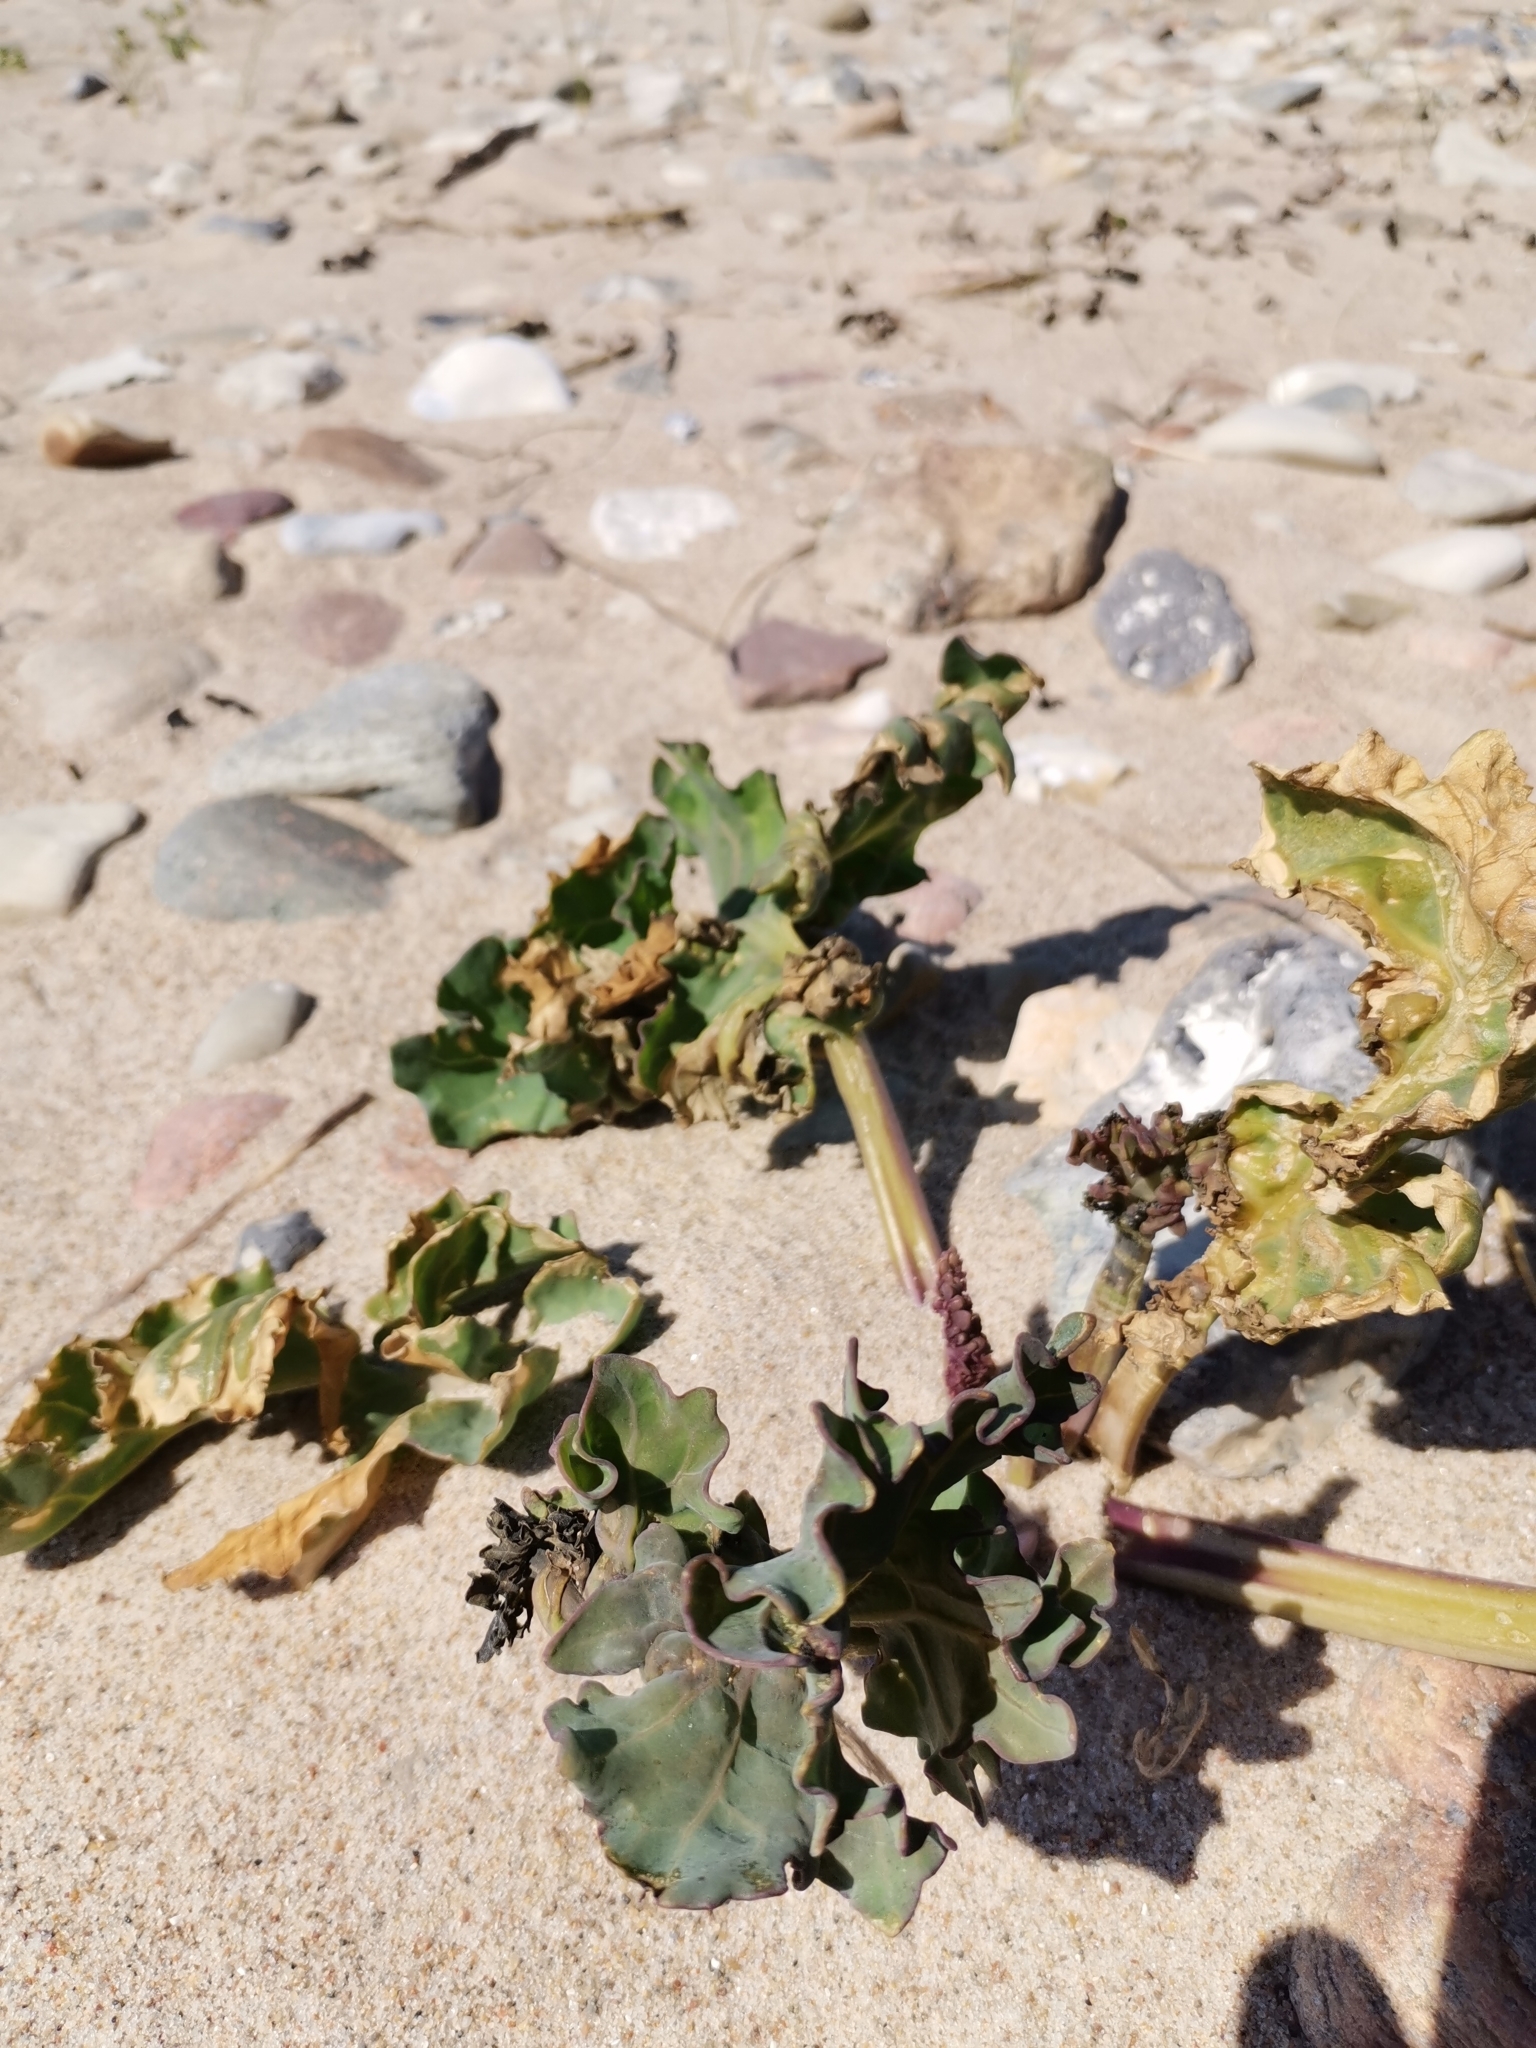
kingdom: Plantae
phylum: Tracheophyta
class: Magnoliopsida
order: Brassicales
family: Brassicaceae
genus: Crambe
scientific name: Crambe maritima
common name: Sea-kale
